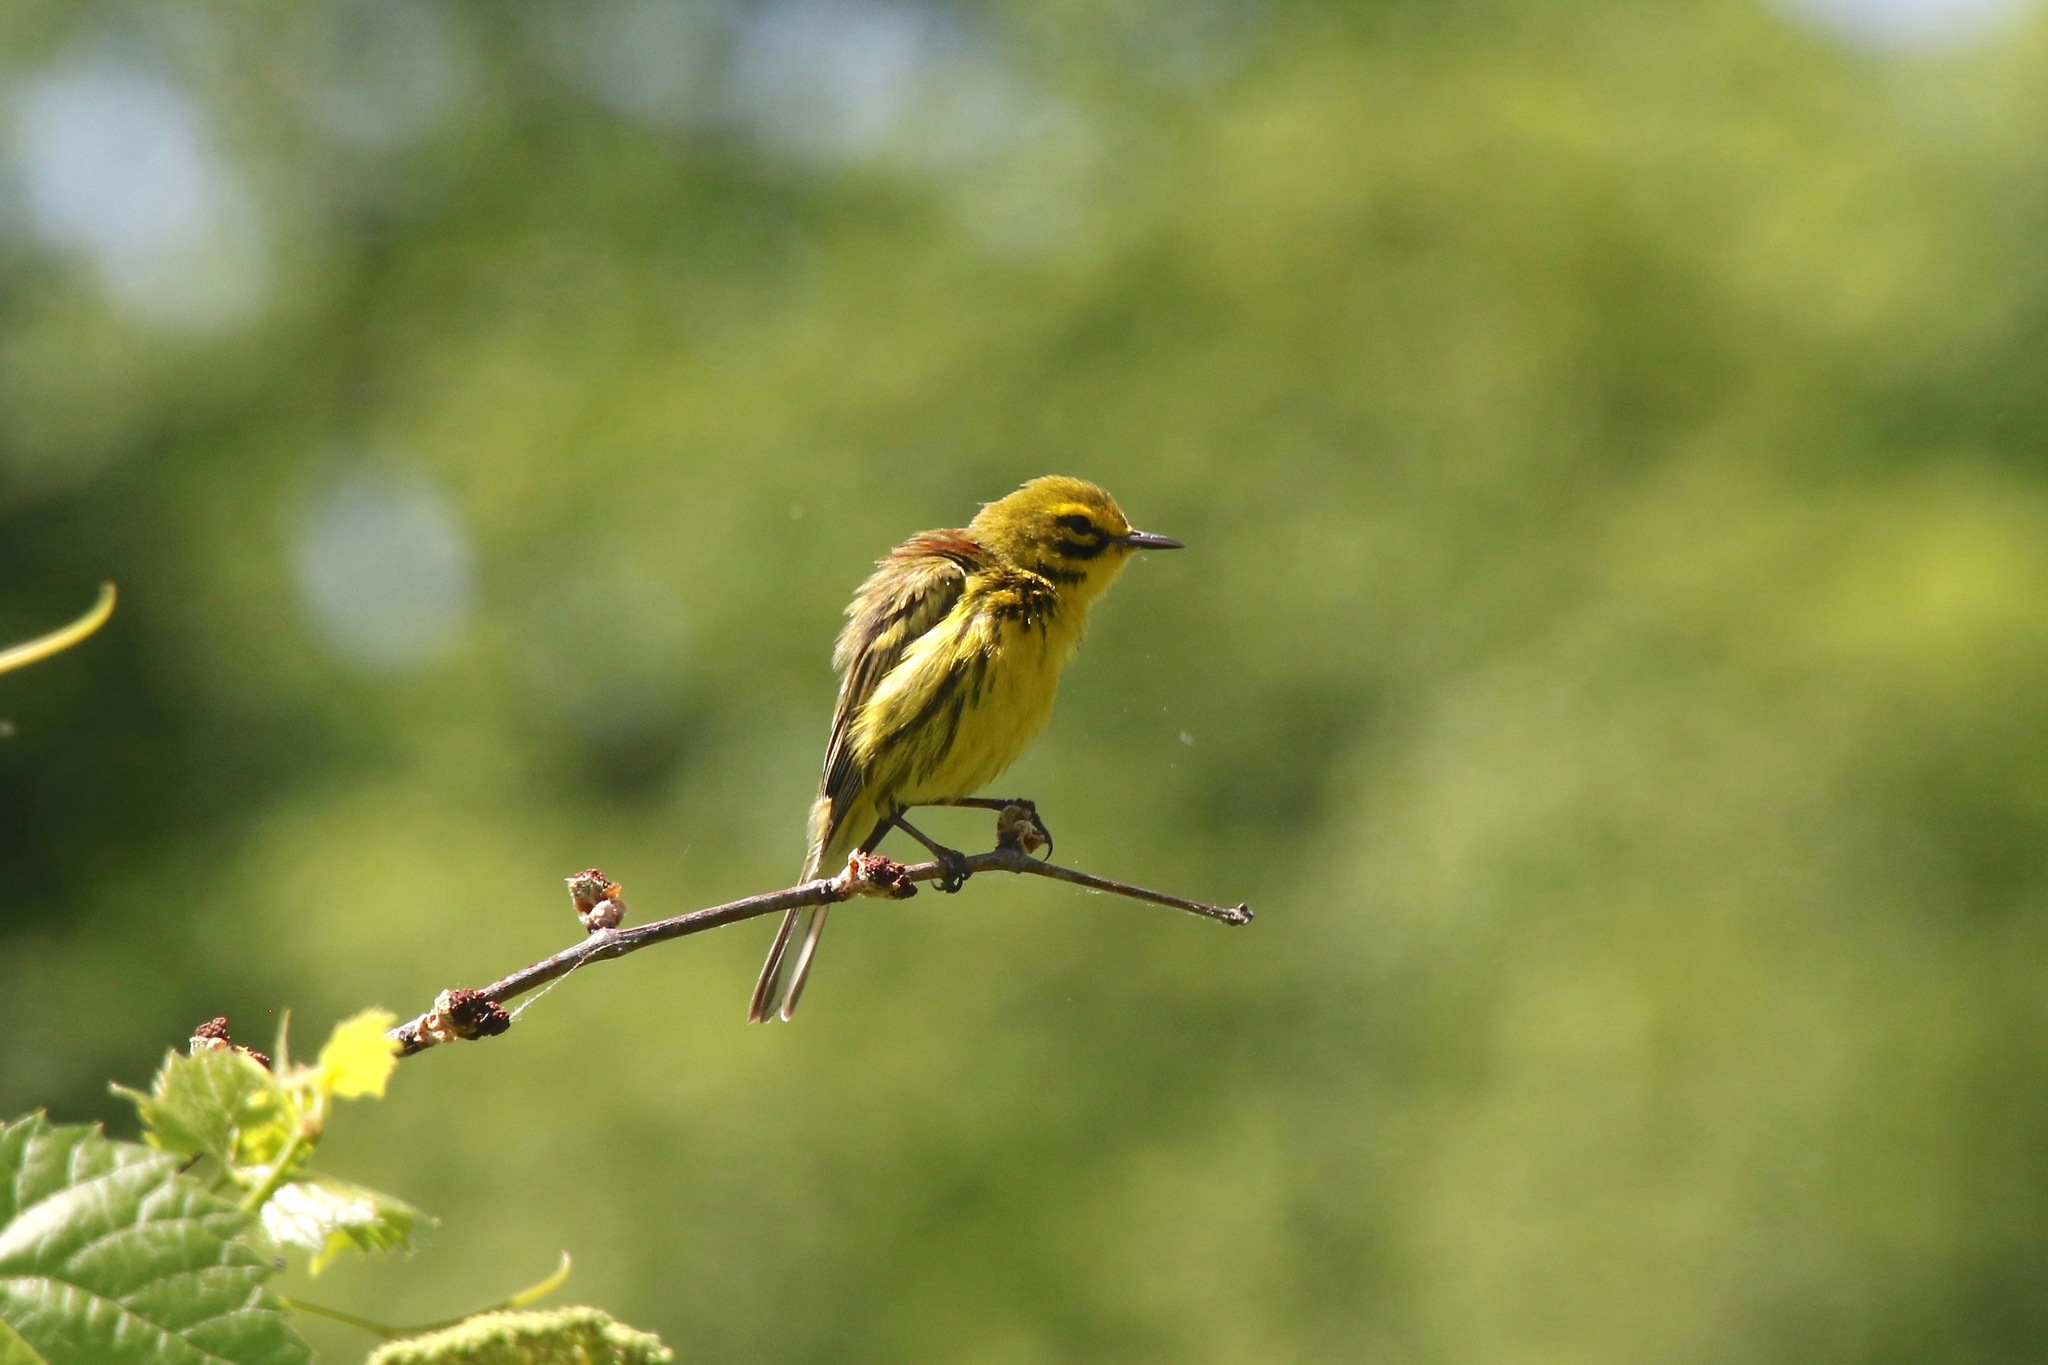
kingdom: Animalia
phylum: Chordata
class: Aves
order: Passeriformes
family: Parulidae
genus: Setophaga
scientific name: Setophaga discolor
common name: Prairie warbler
